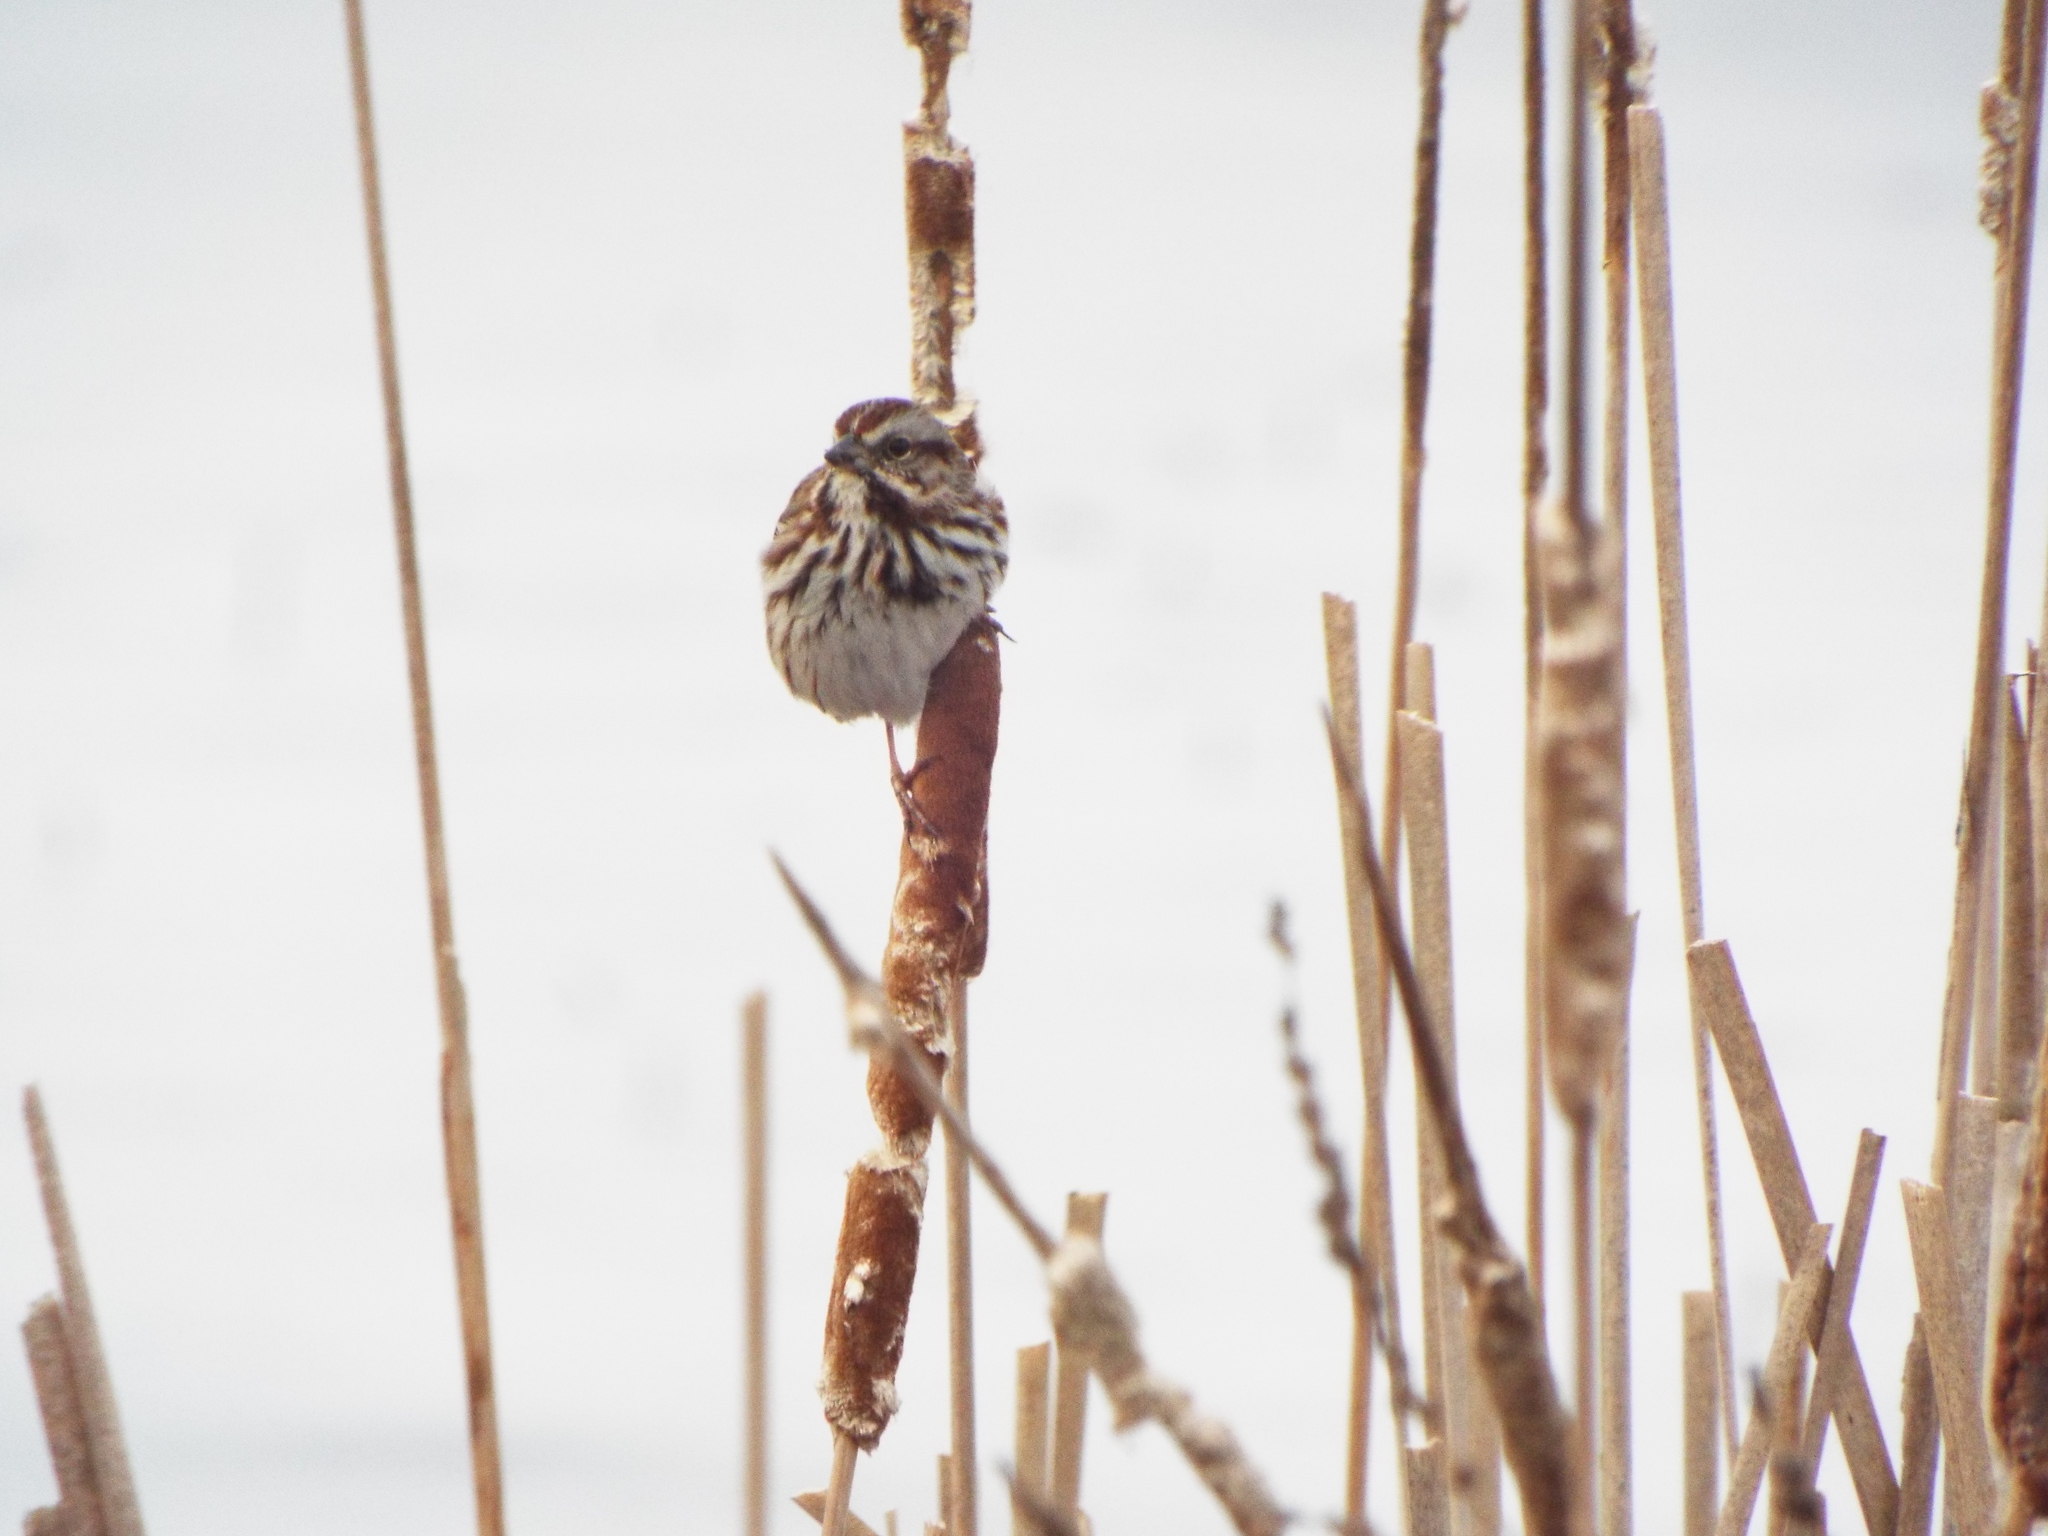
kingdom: Animalia
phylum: Chordata
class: Aves
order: Passeriformes
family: Passerellidae
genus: Melospiza
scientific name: Melospiza melodia
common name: Song sparrow
